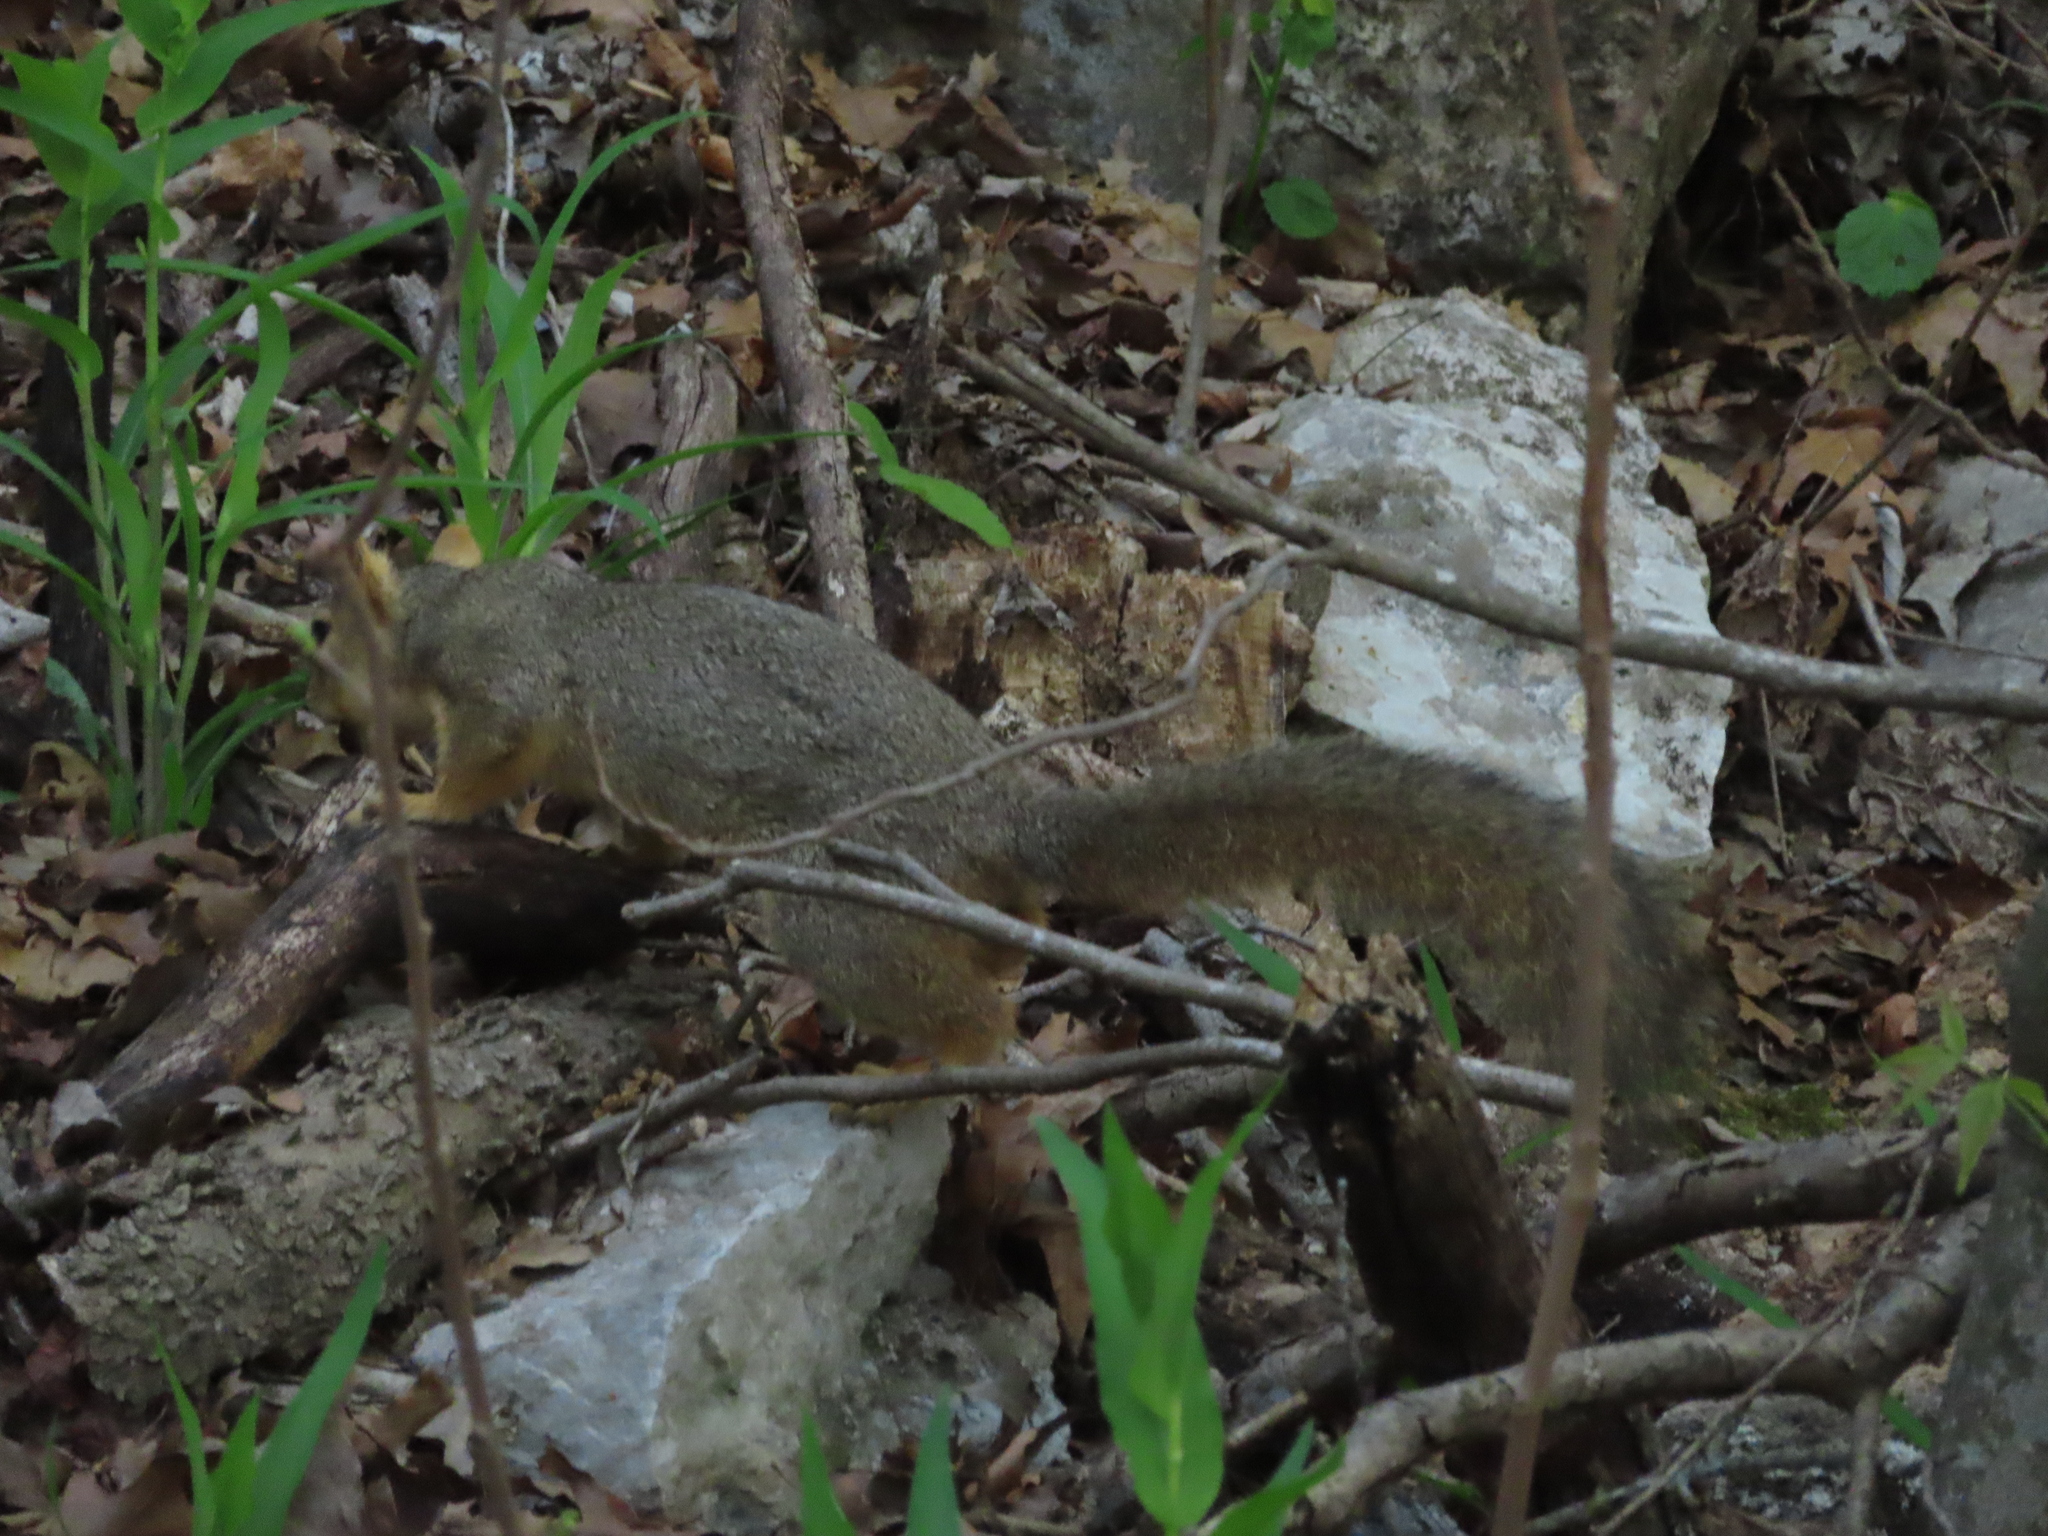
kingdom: Animalia
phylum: Chordata
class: Mammalia
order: Rodentia
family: Sciuridae
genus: Sciurus
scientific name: Sciurus niger
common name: Fox squirrel
